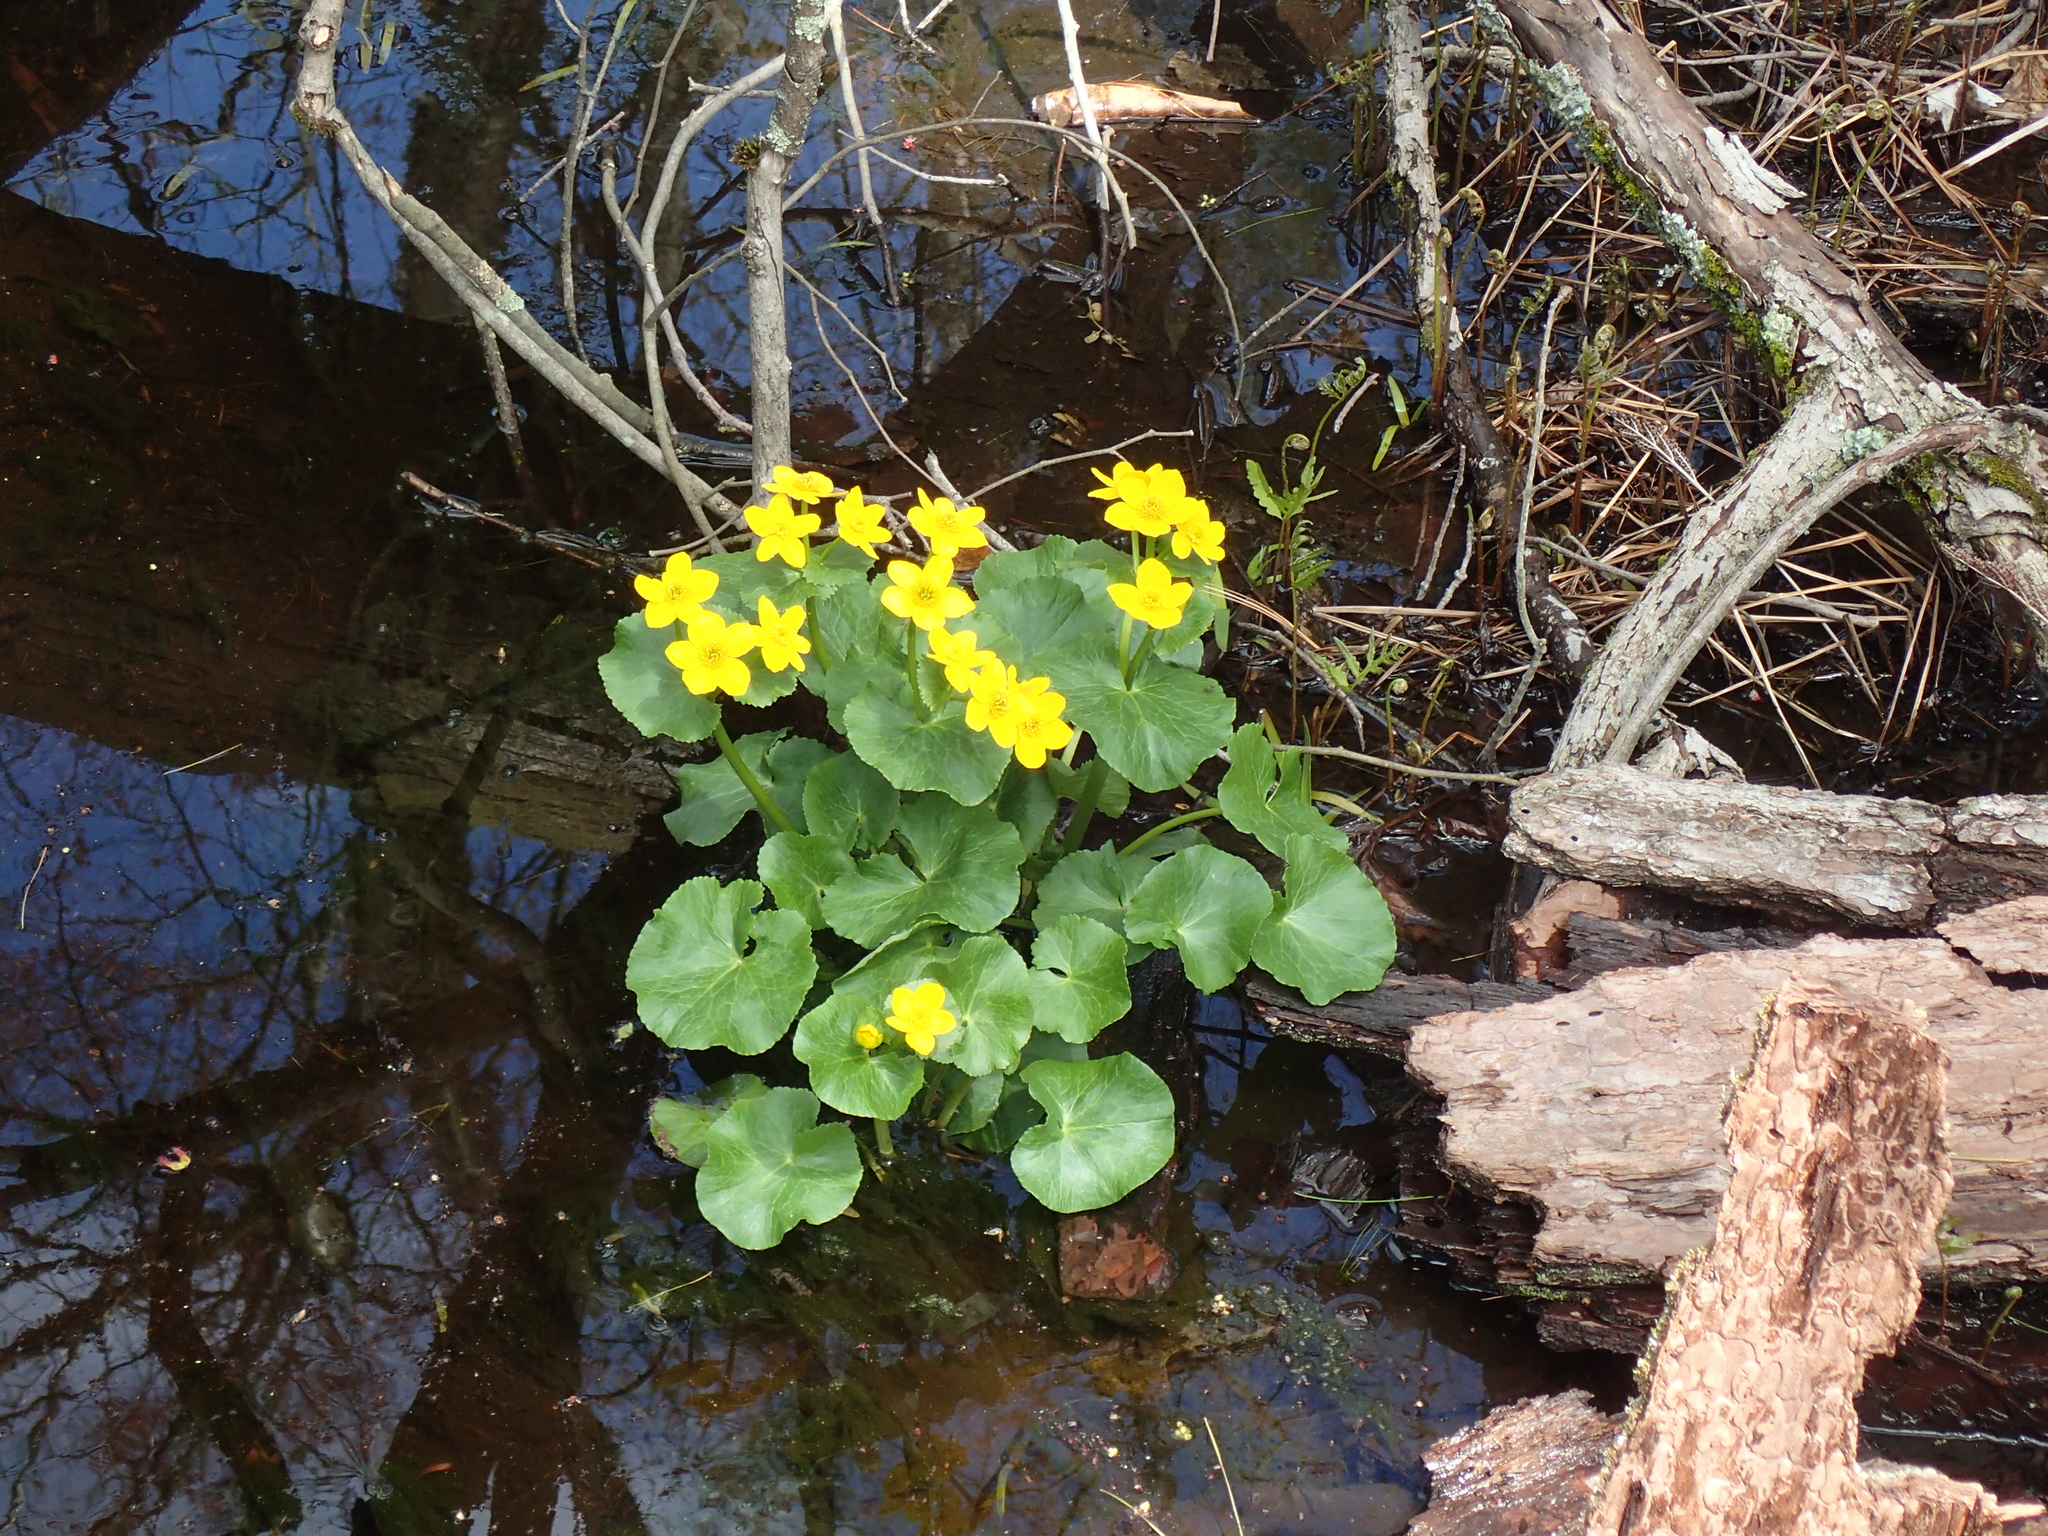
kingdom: Plantae
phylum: Tracheophyta
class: Magnoliopsida
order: Ranunculales
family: Ranunculaceae
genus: Caltha
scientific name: Caltha palustris
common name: Marsh marigold
